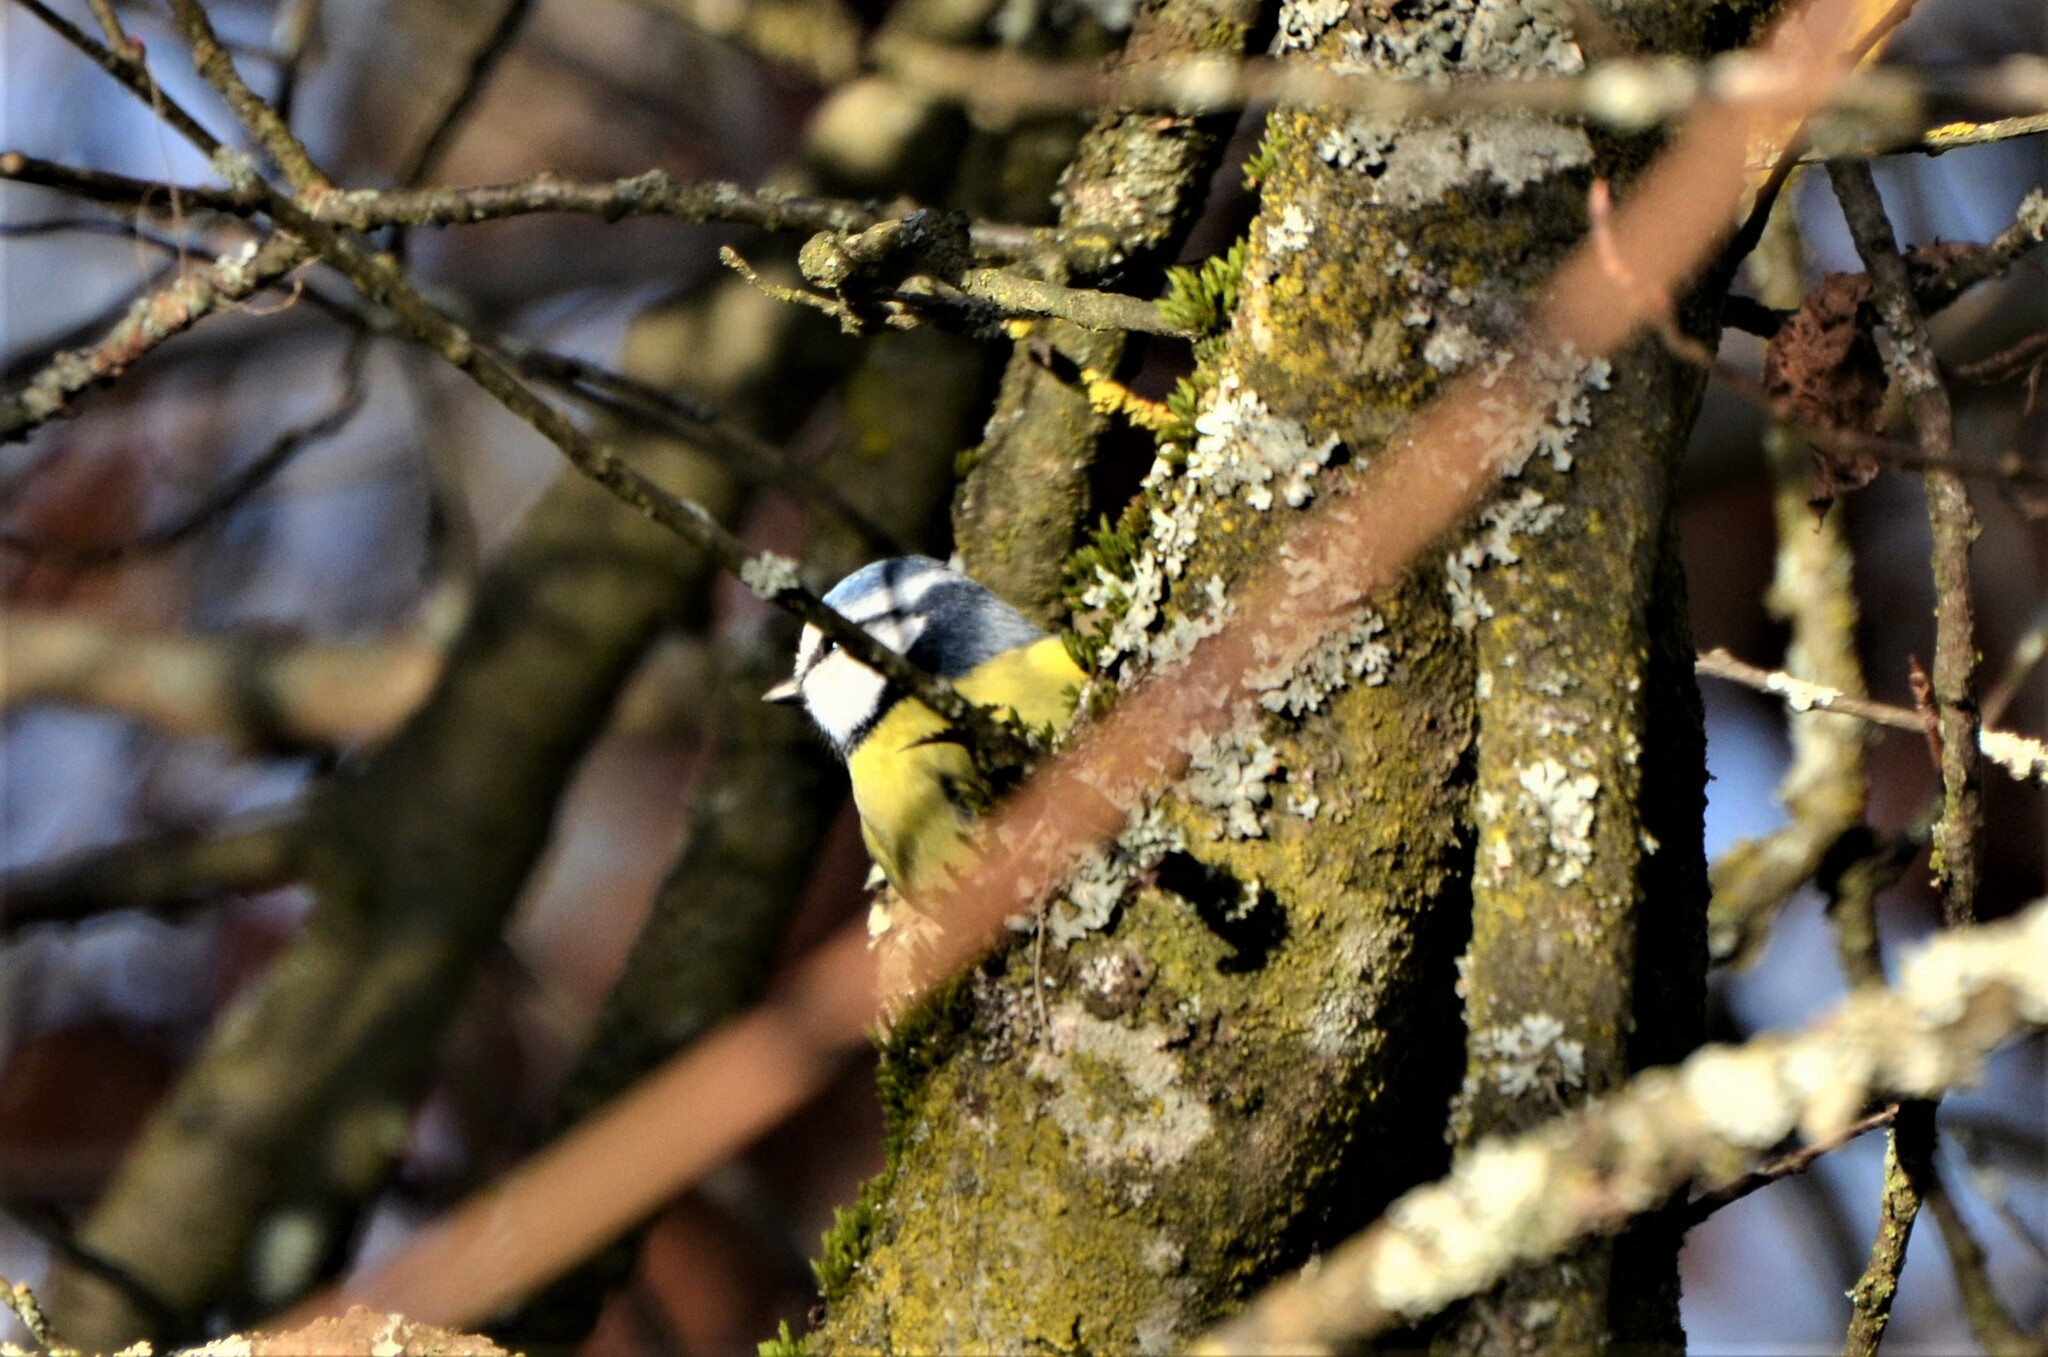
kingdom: Animalia
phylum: Chordata
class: Aves
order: Passeriformes
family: Paridae
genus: Cyanistes
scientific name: Cyanistes caeruleus
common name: Eurasian blue tit
